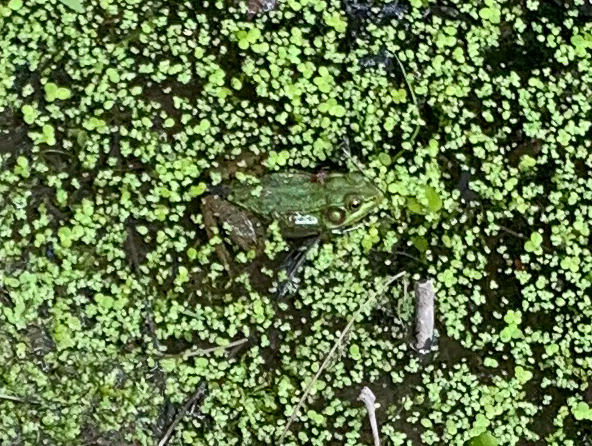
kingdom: Animalia
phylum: Chordata
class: Amphibia
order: Anura
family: Ranidae
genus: Lithobates
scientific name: Lithobates clamitans
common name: Green frog
